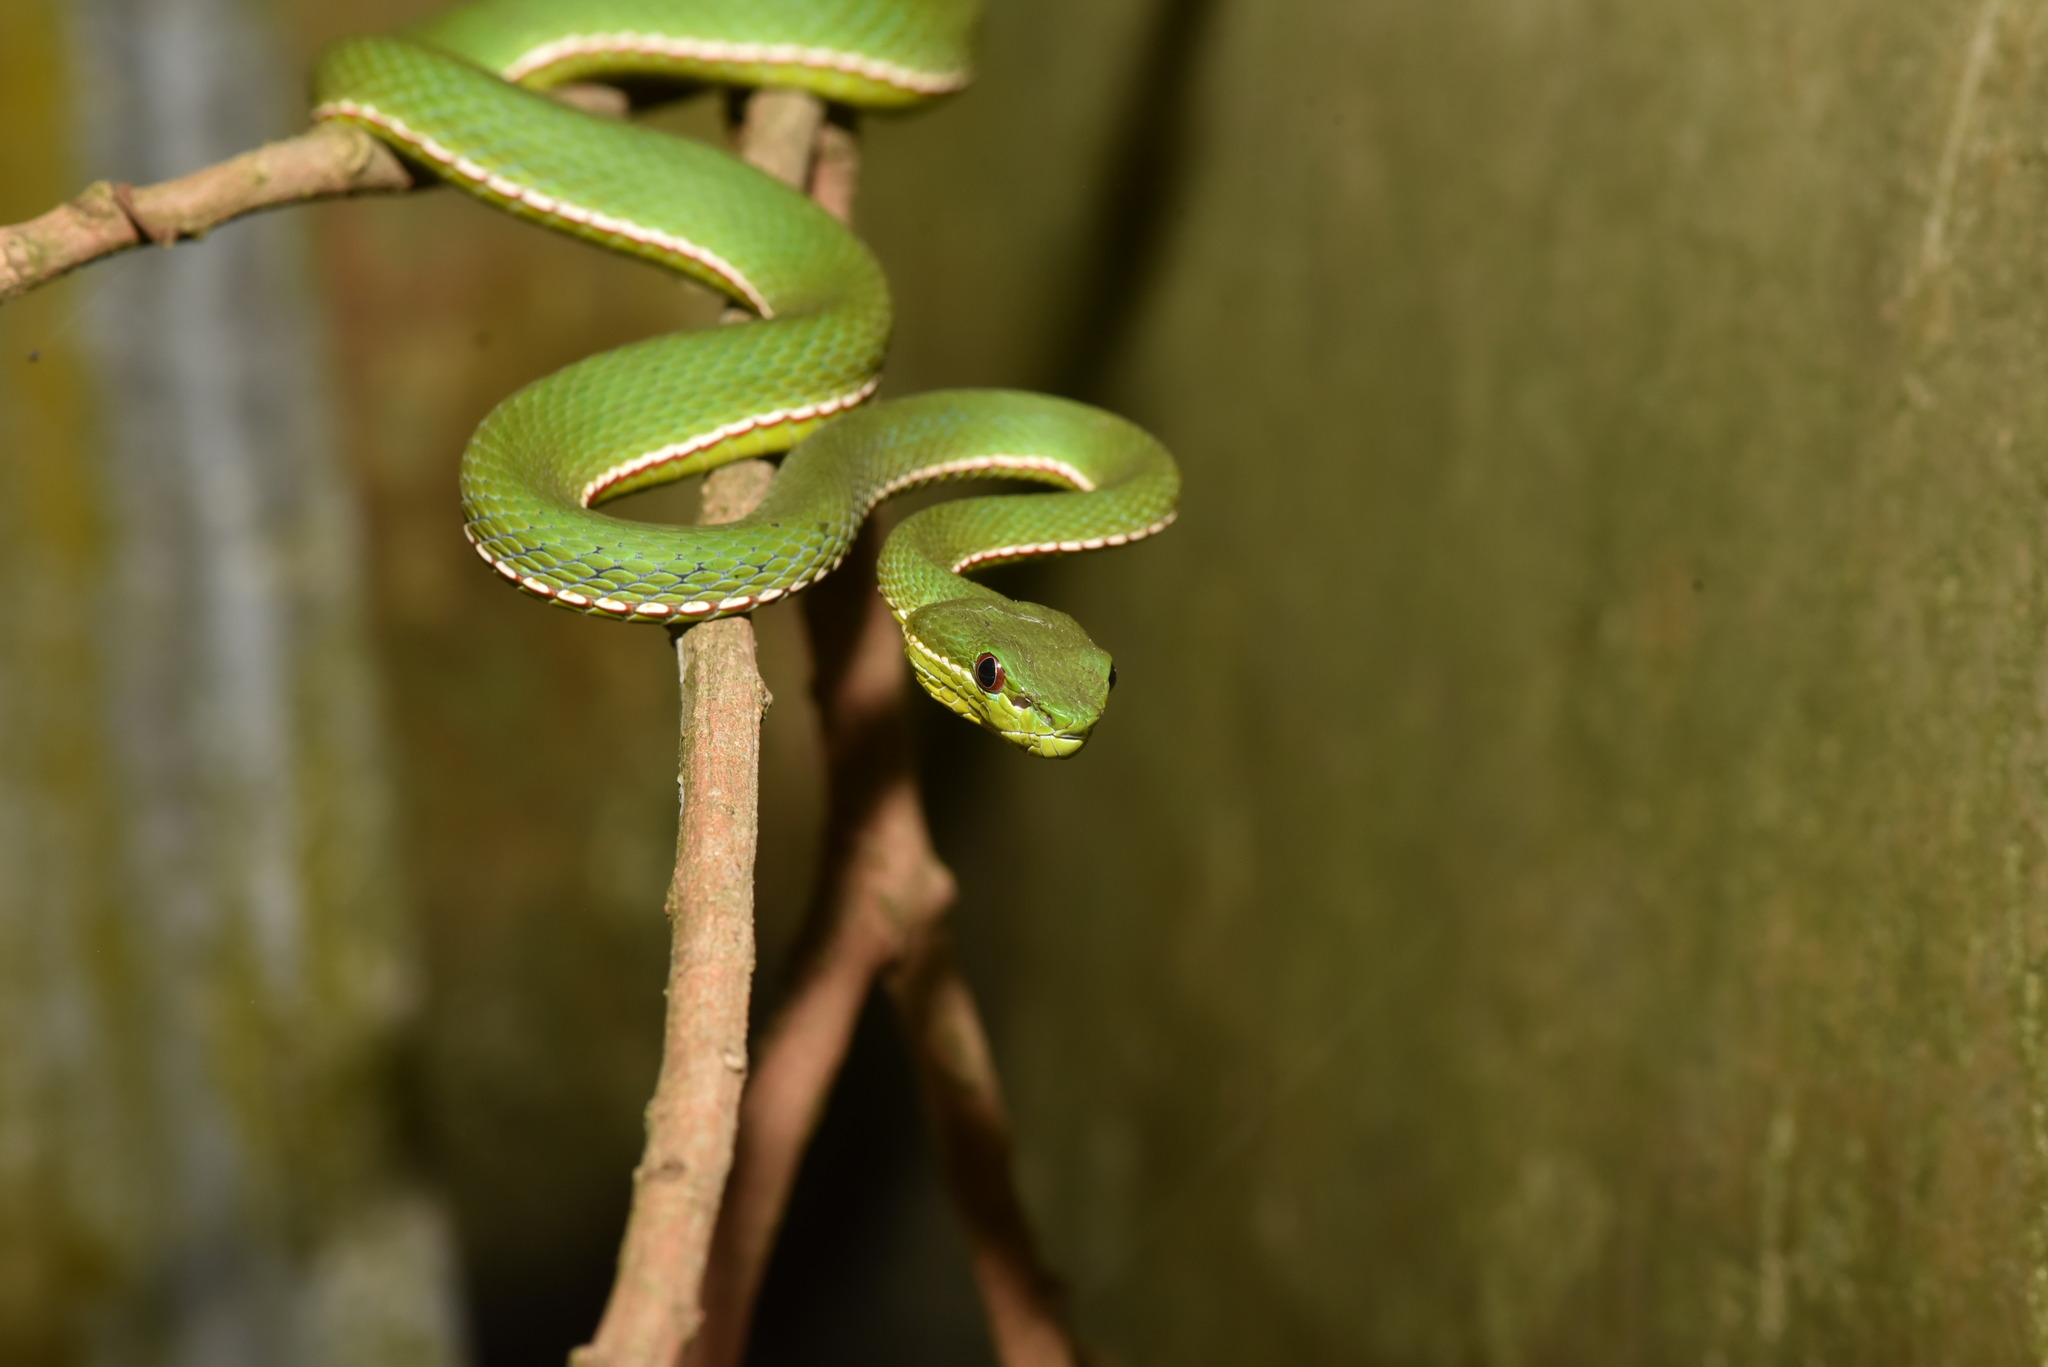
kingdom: Animalia
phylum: Chordata
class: Squamata
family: Viperidae
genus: Trimeresurus
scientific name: Trimeresurus stejnegeri
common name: Chen’s bamboo pit viper
